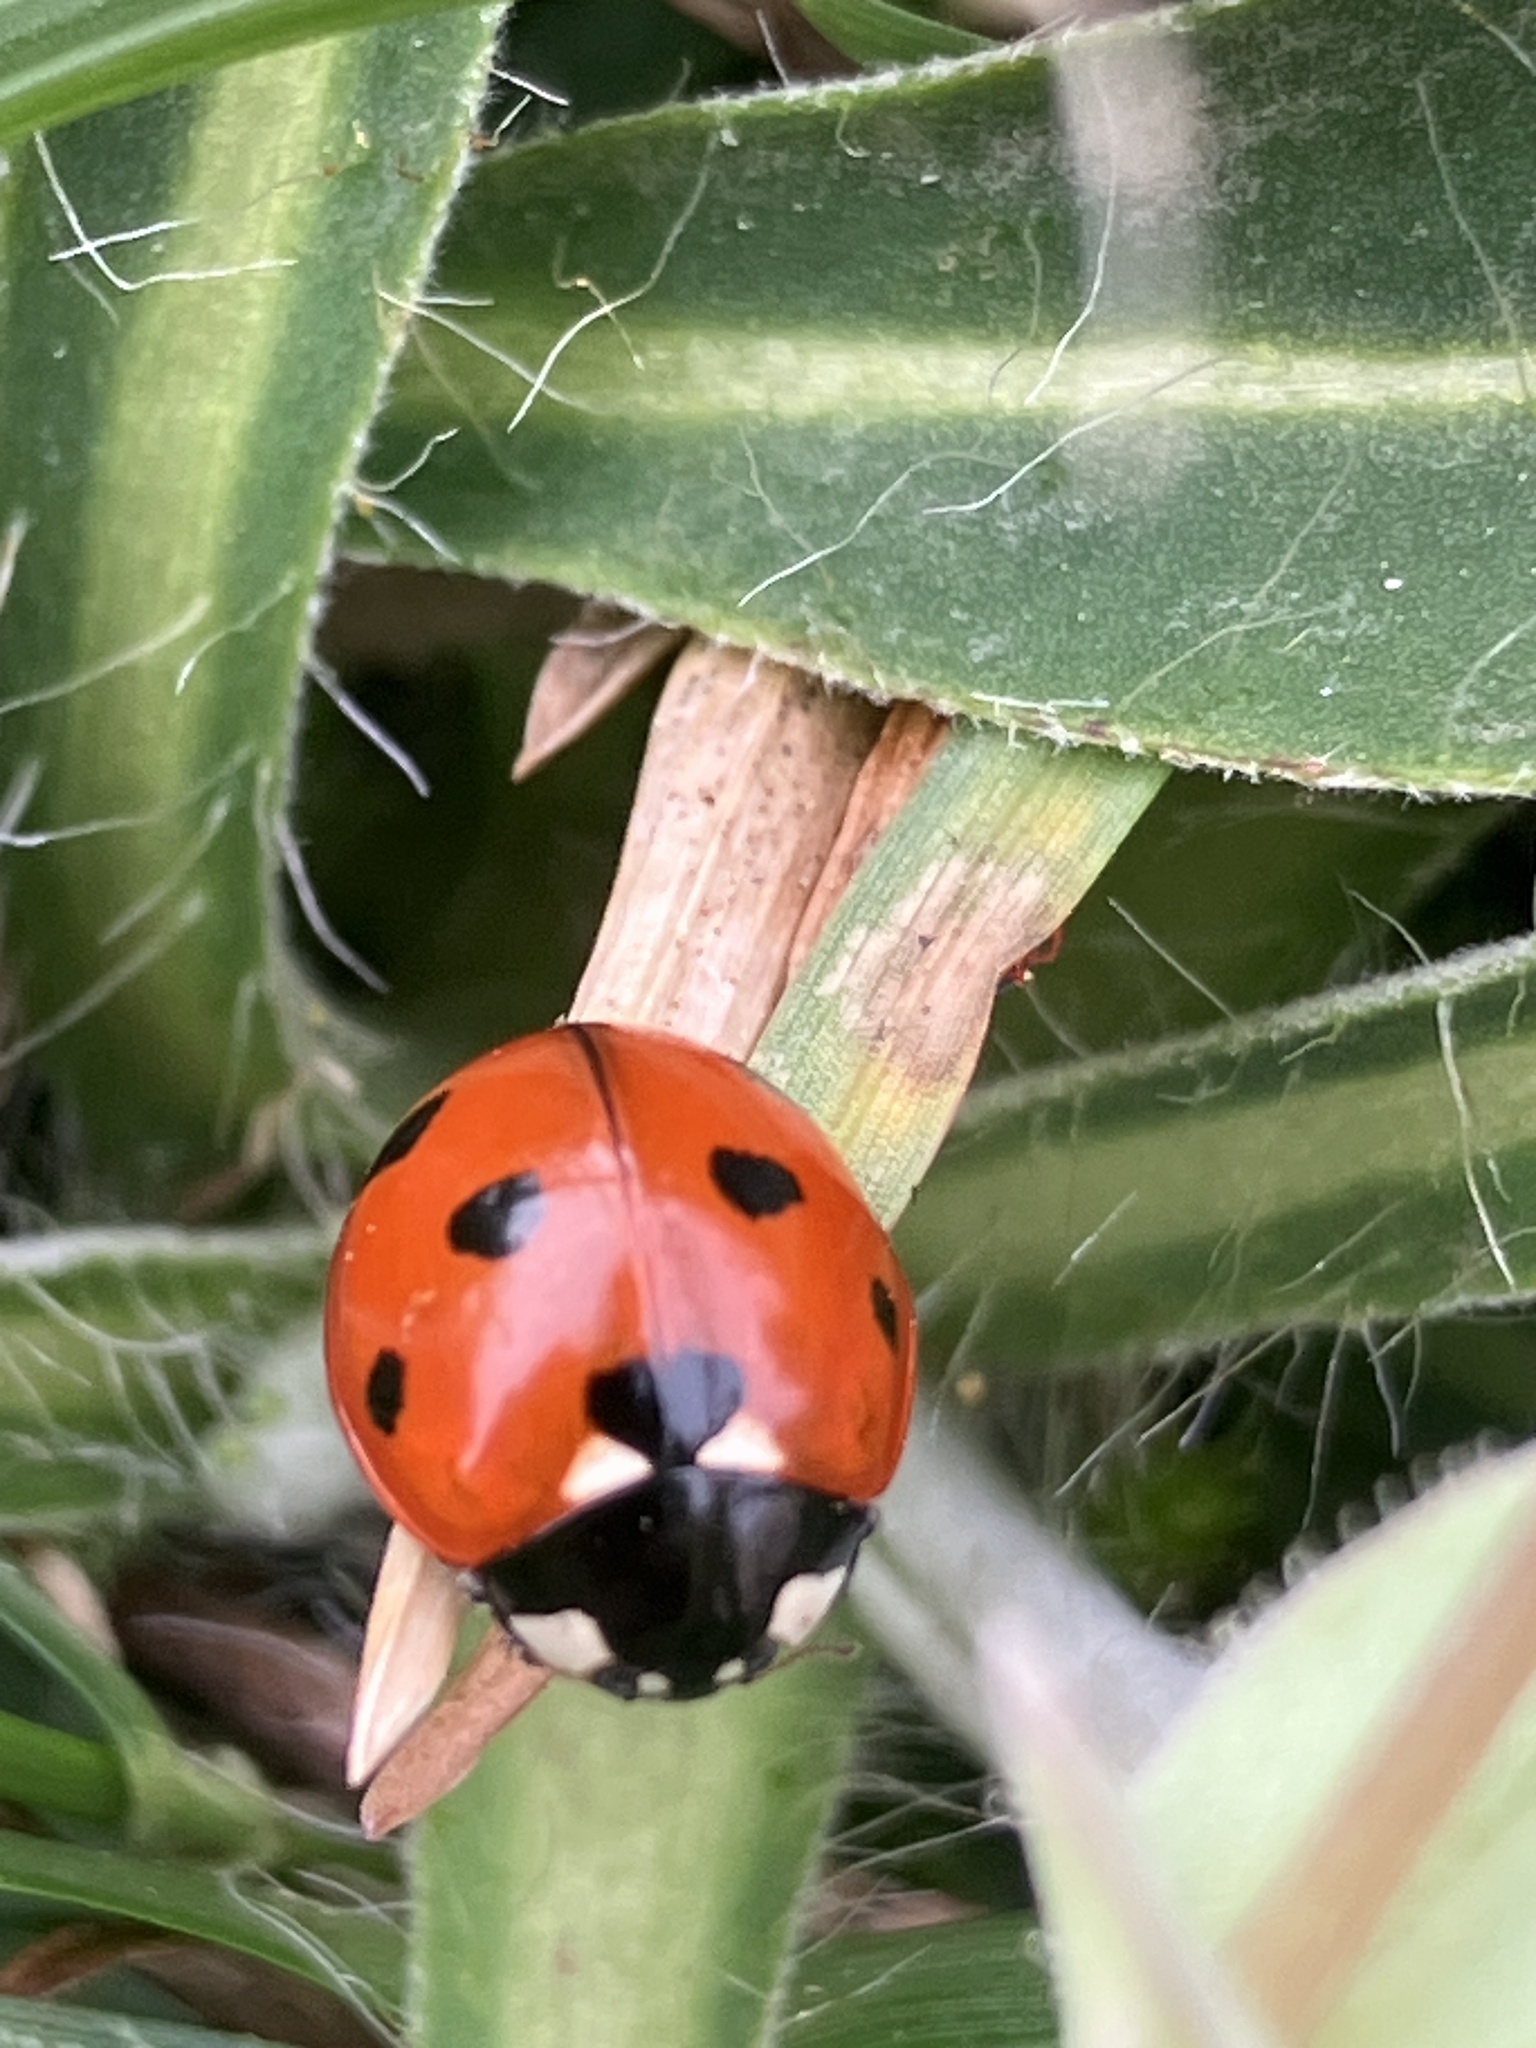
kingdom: Animalia
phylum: Arthropoda
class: Insecta
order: Coleoptera
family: Coccinellidae
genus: Coccinella
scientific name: Coccinella septempunctata
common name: Sevenspotted lady beetle
